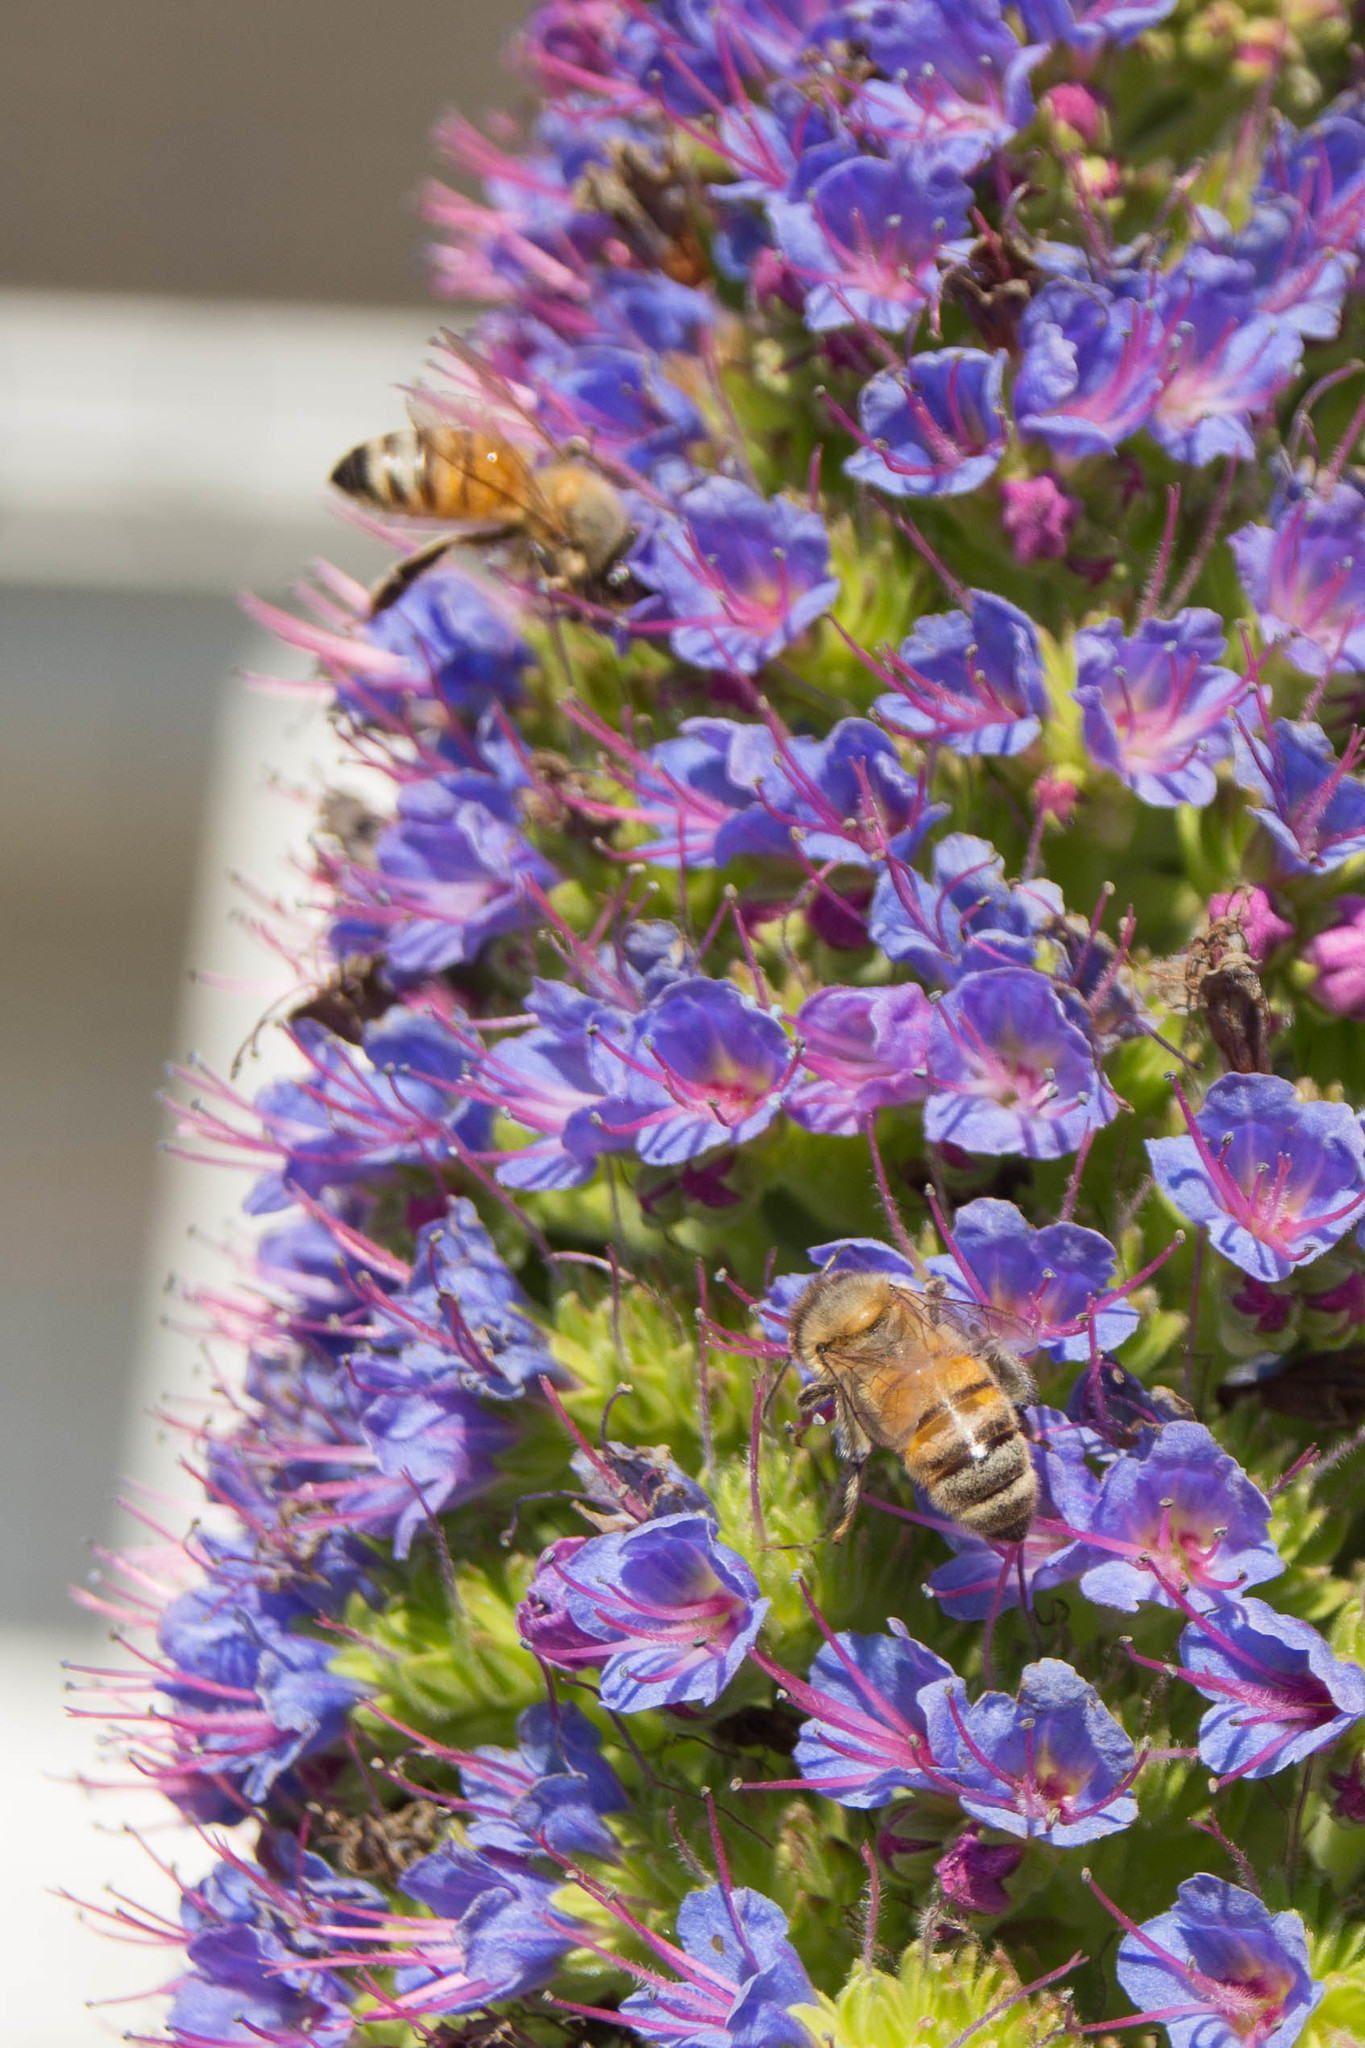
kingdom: Animalia
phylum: Arthropoda
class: Insecta
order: Hymenoptera
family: Apidae
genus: Apis
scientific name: Apis mellifera
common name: Honey bee
